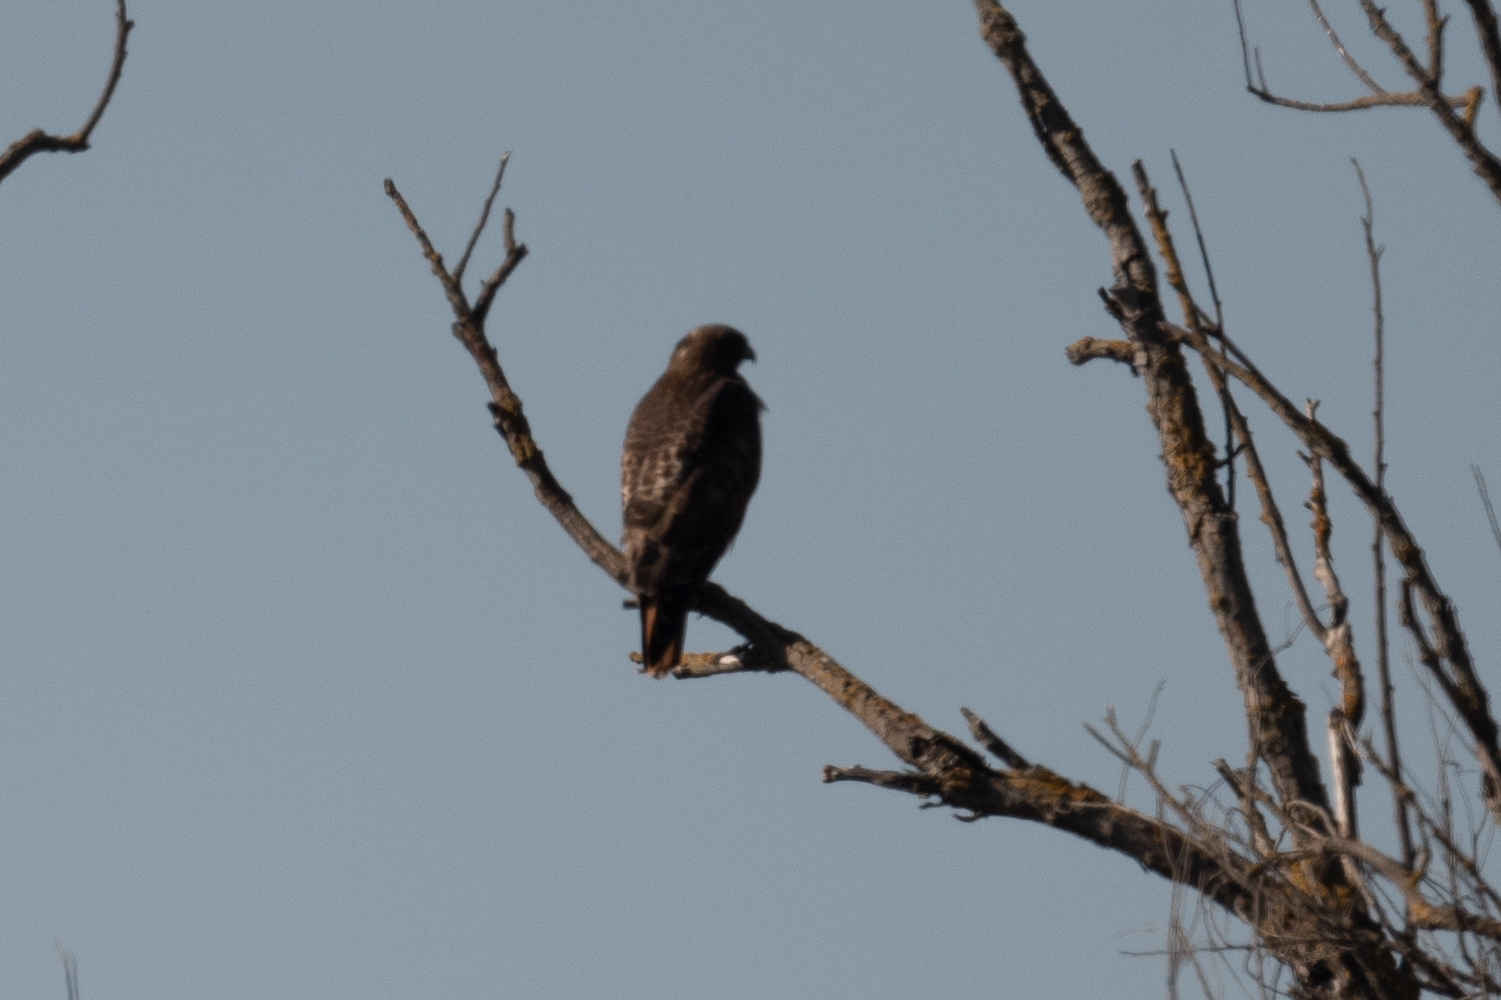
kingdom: Animalia
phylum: Chordata
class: Aves
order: Accipitriformes
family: Accipitridae
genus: Buteo
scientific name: Buteo jamaicensis
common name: Red-tailed hawk
